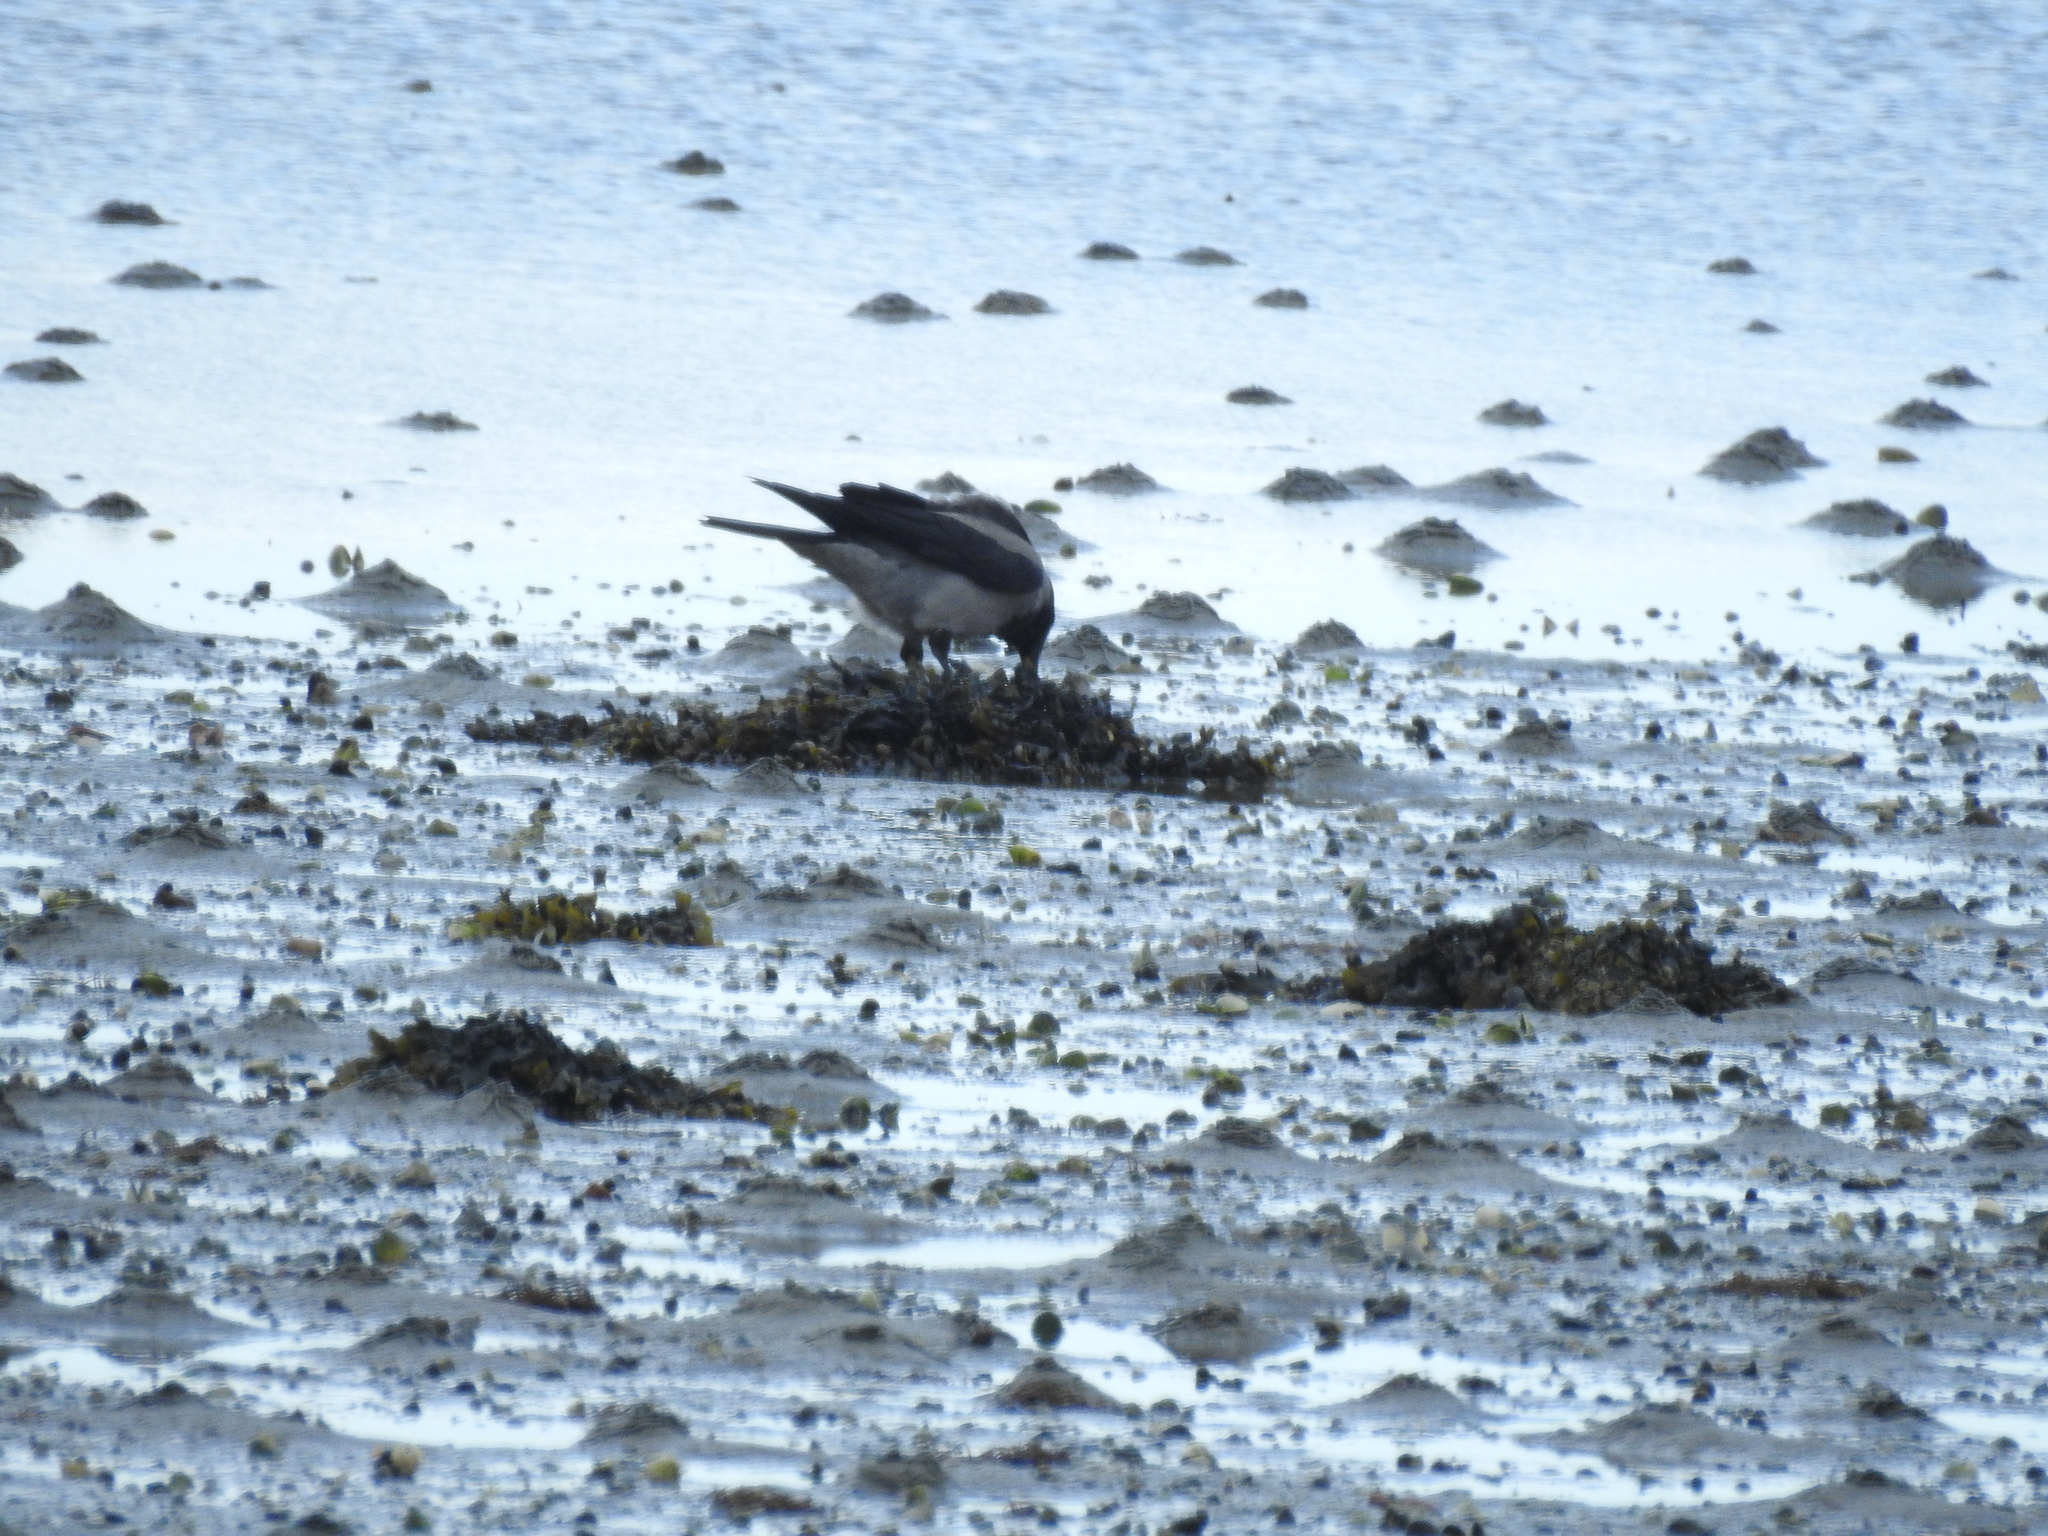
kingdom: Animalia
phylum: Chordata
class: Aves
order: Passeriformes
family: Corvidae
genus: Corvus
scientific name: Corvus cornix
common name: Hooded crow
